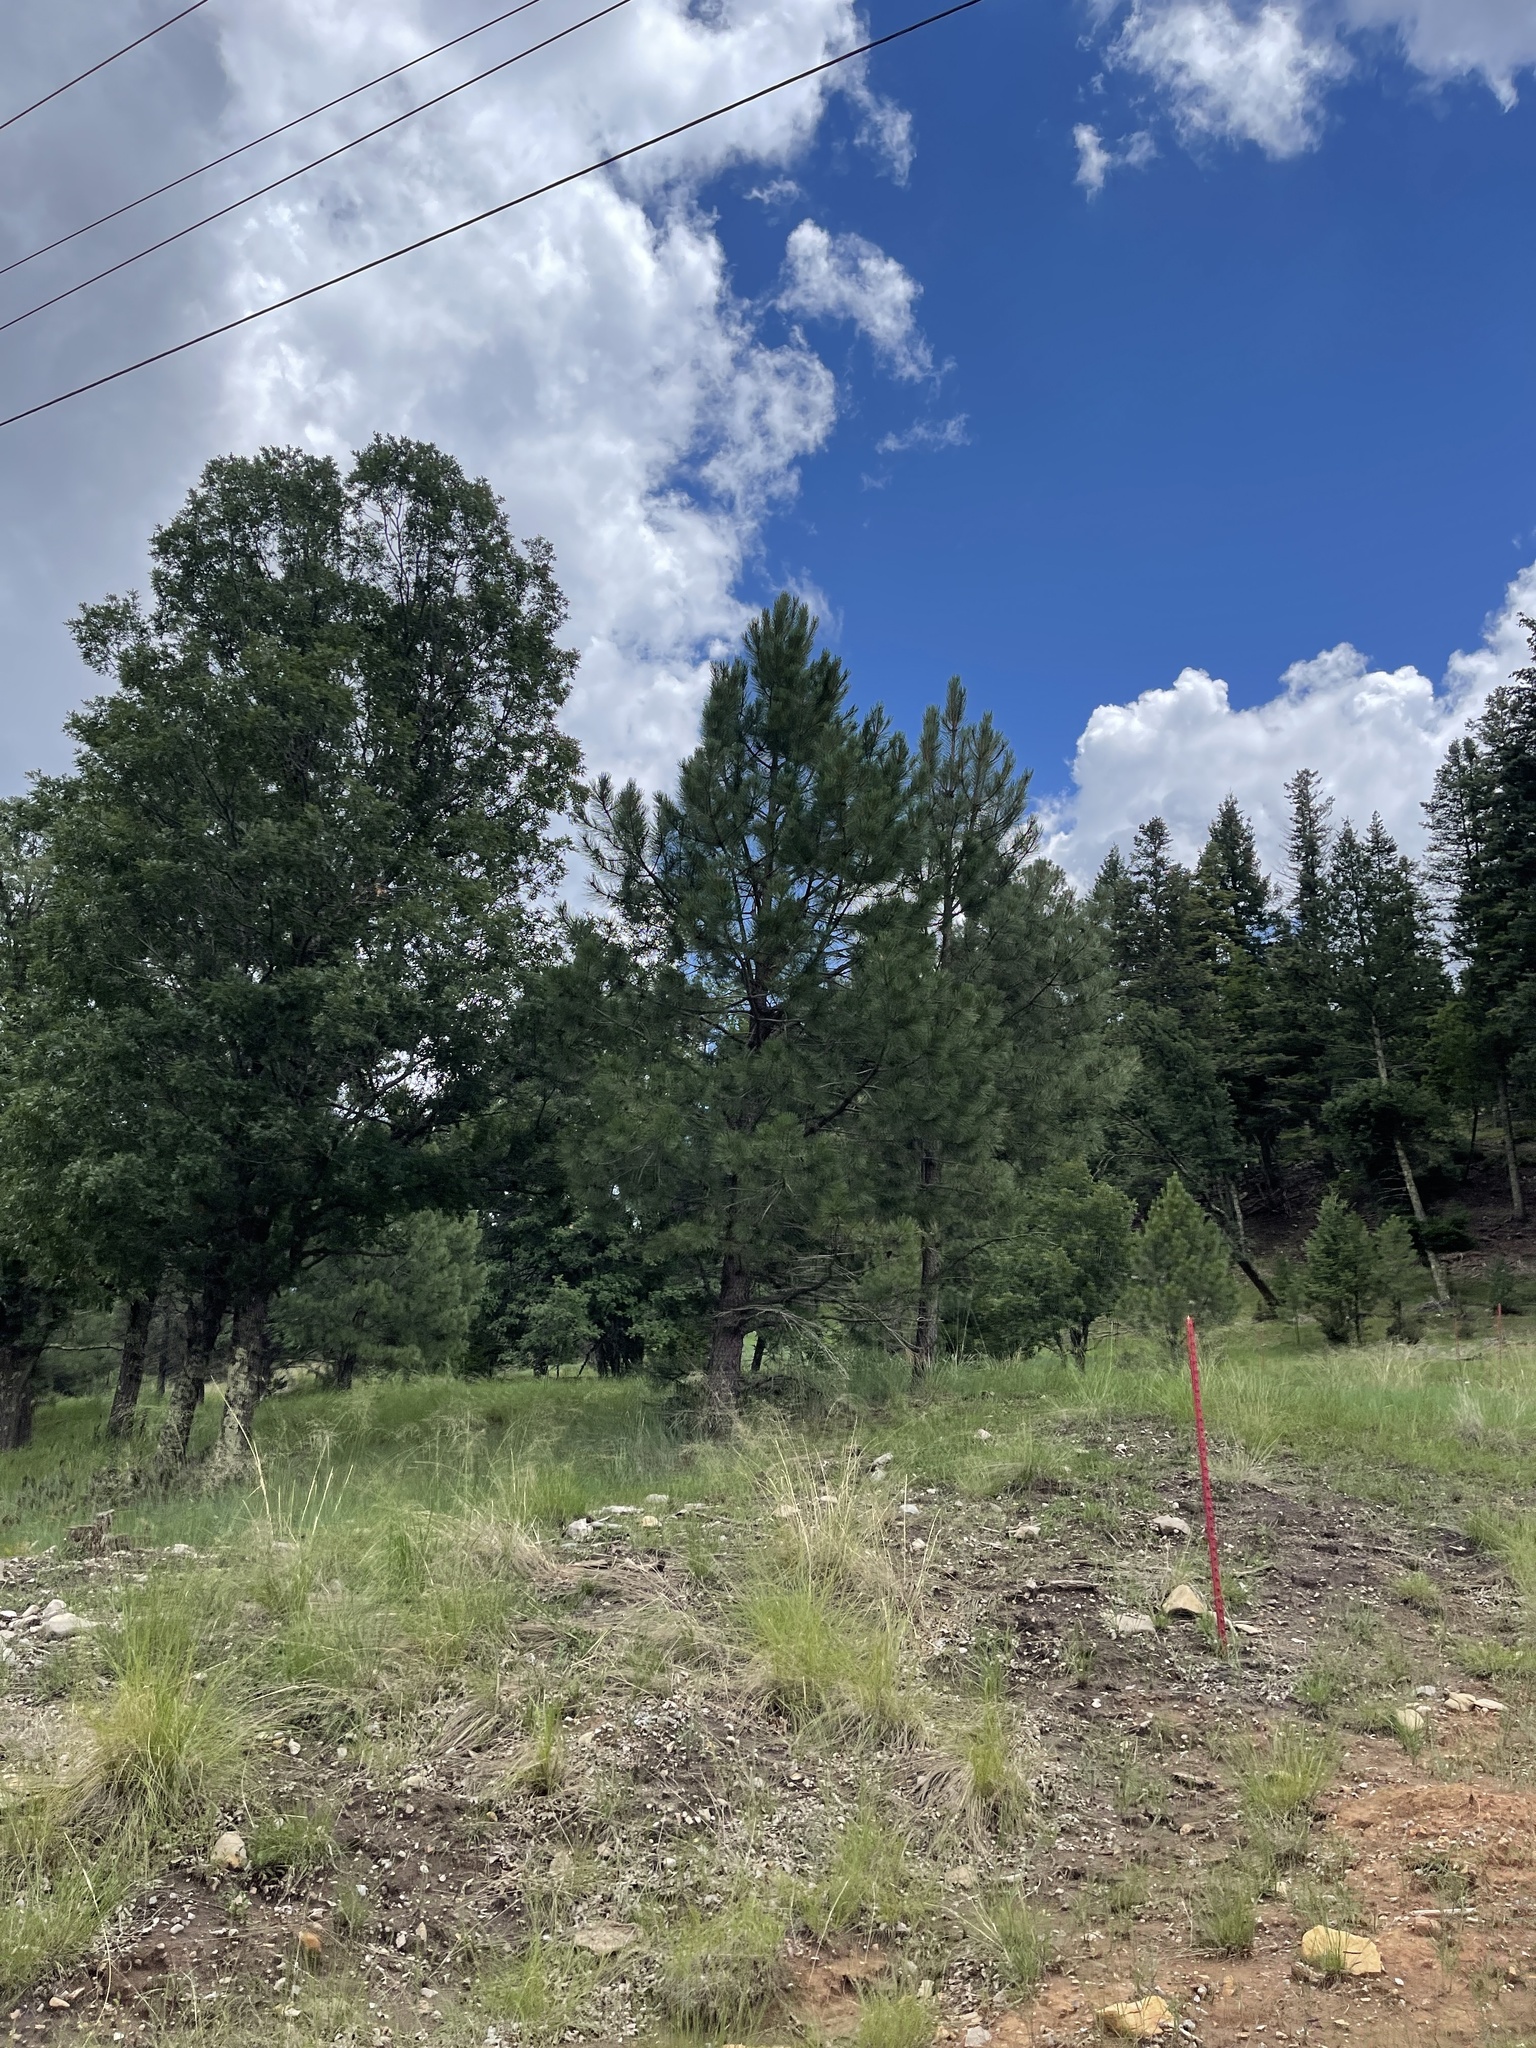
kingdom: Plantae
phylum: Tracheophyta
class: Pinopsida
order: Pinales
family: Pinaceae
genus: Pinus
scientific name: Pinus strobiformis
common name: Southwestern white pine
